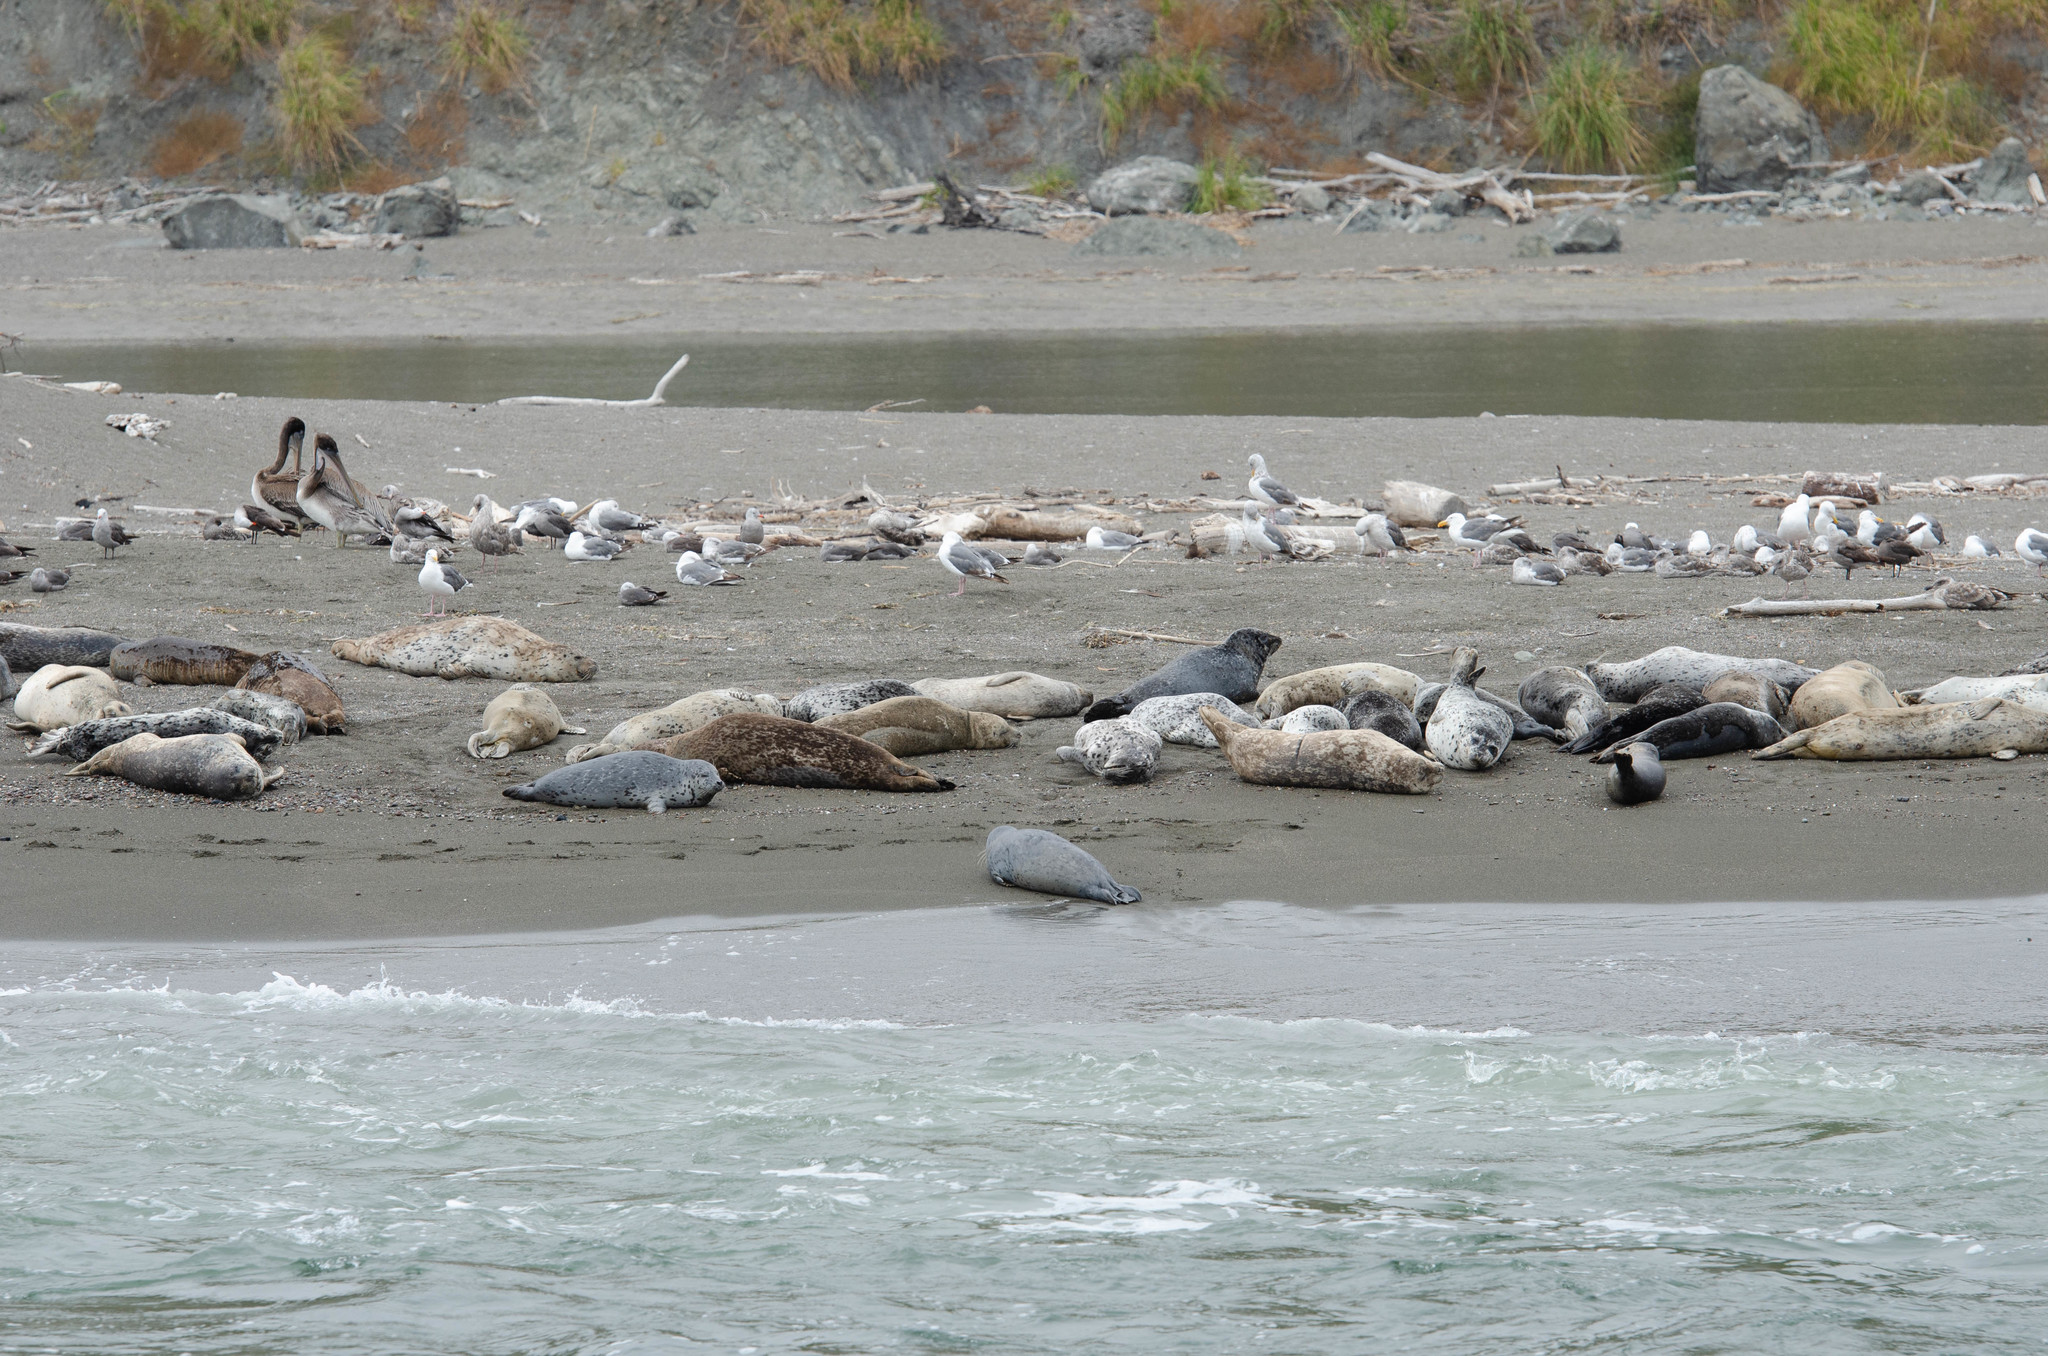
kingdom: Animalia
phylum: Chordata
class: Mammalia
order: Carnivora
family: Phocidae
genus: Phoca
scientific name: Phoca vitulina
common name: Harbor seal
